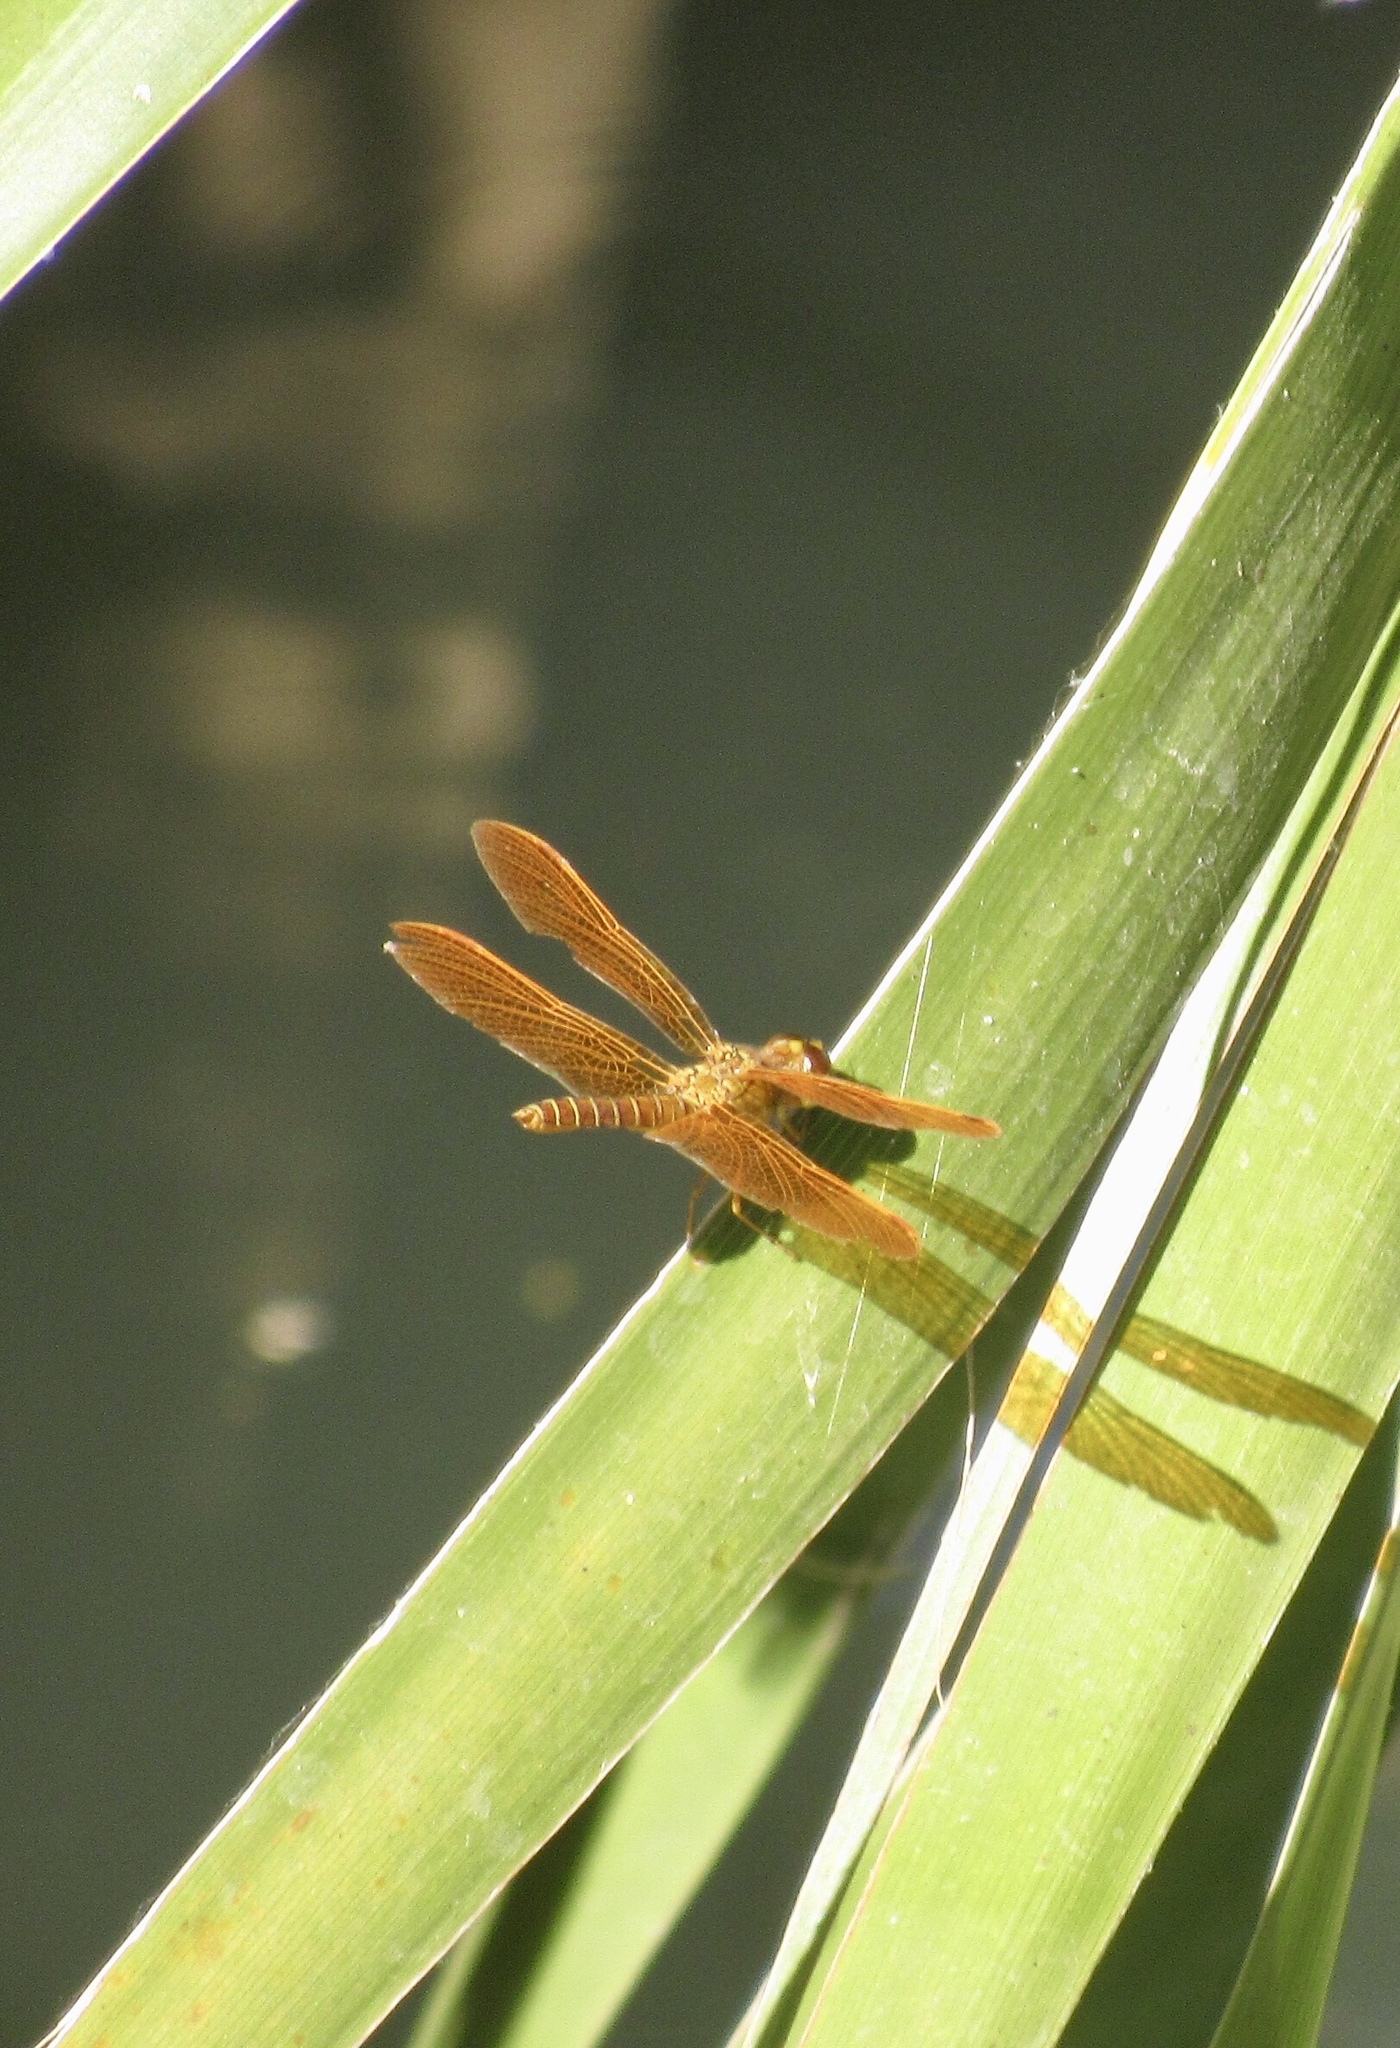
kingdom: Animalia
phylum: Arthropoda
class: Insecta
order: Odonata
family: Libellulidae
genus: Perithemis
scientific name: Perithemis intensa
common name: Mexican amberwing
